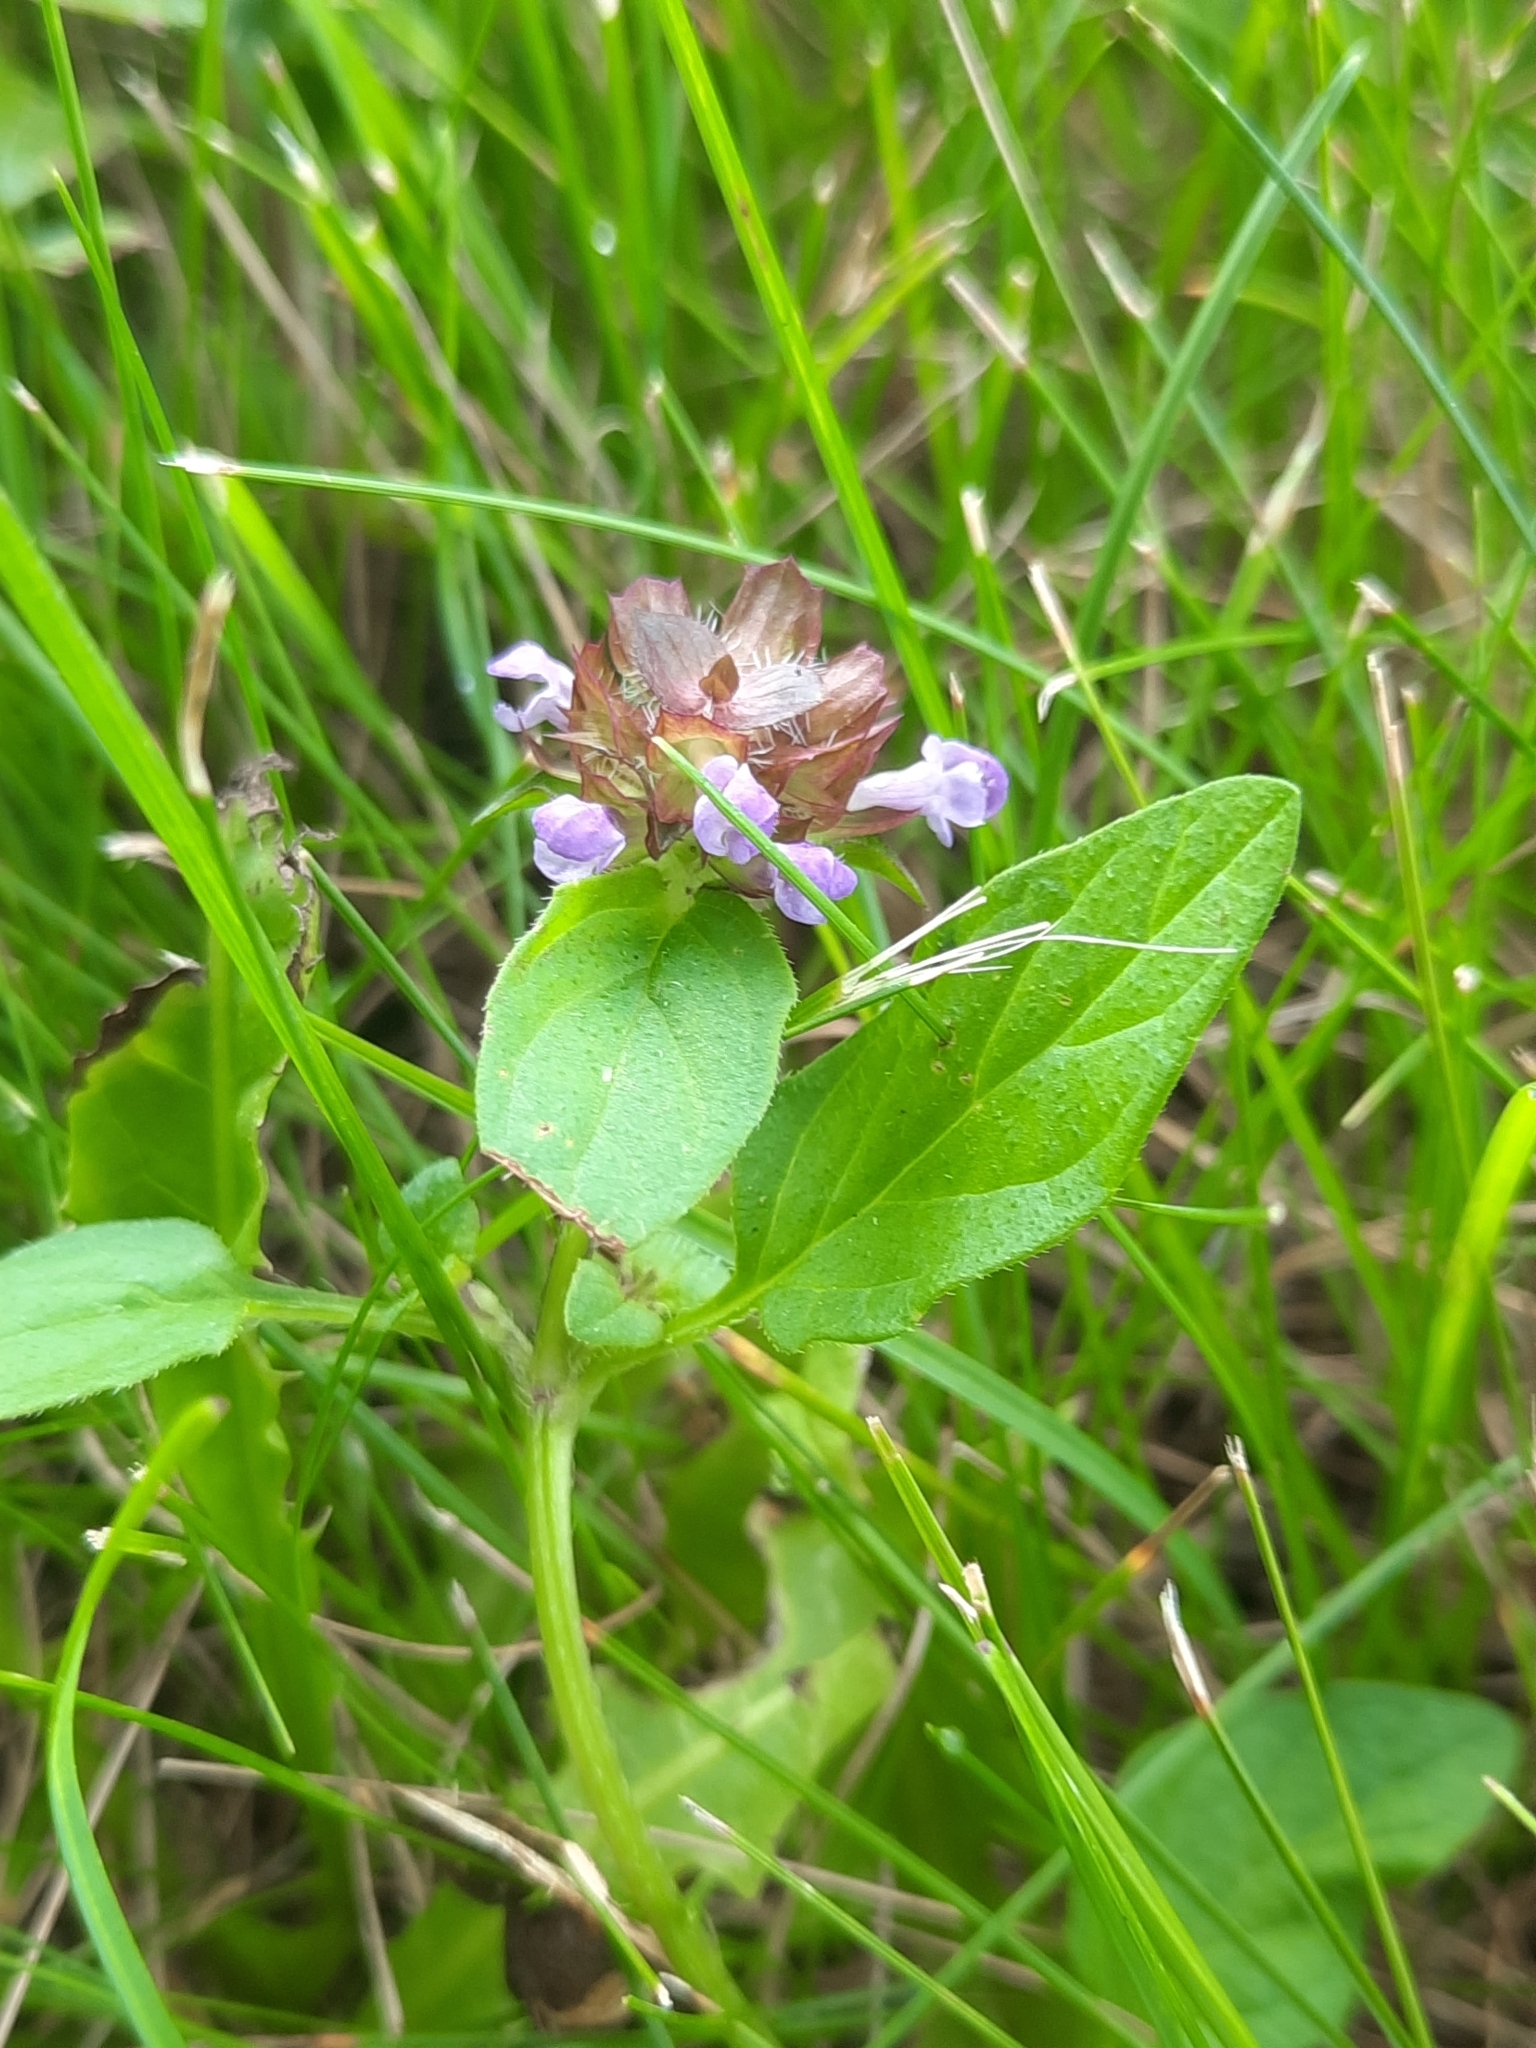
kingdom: Plantae
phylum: Tracheophyta
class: Magnoliopsida
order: Lamiales
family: Lamiaceae
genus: Prunella
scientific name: Prunella vulgaris
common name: Heal-all
